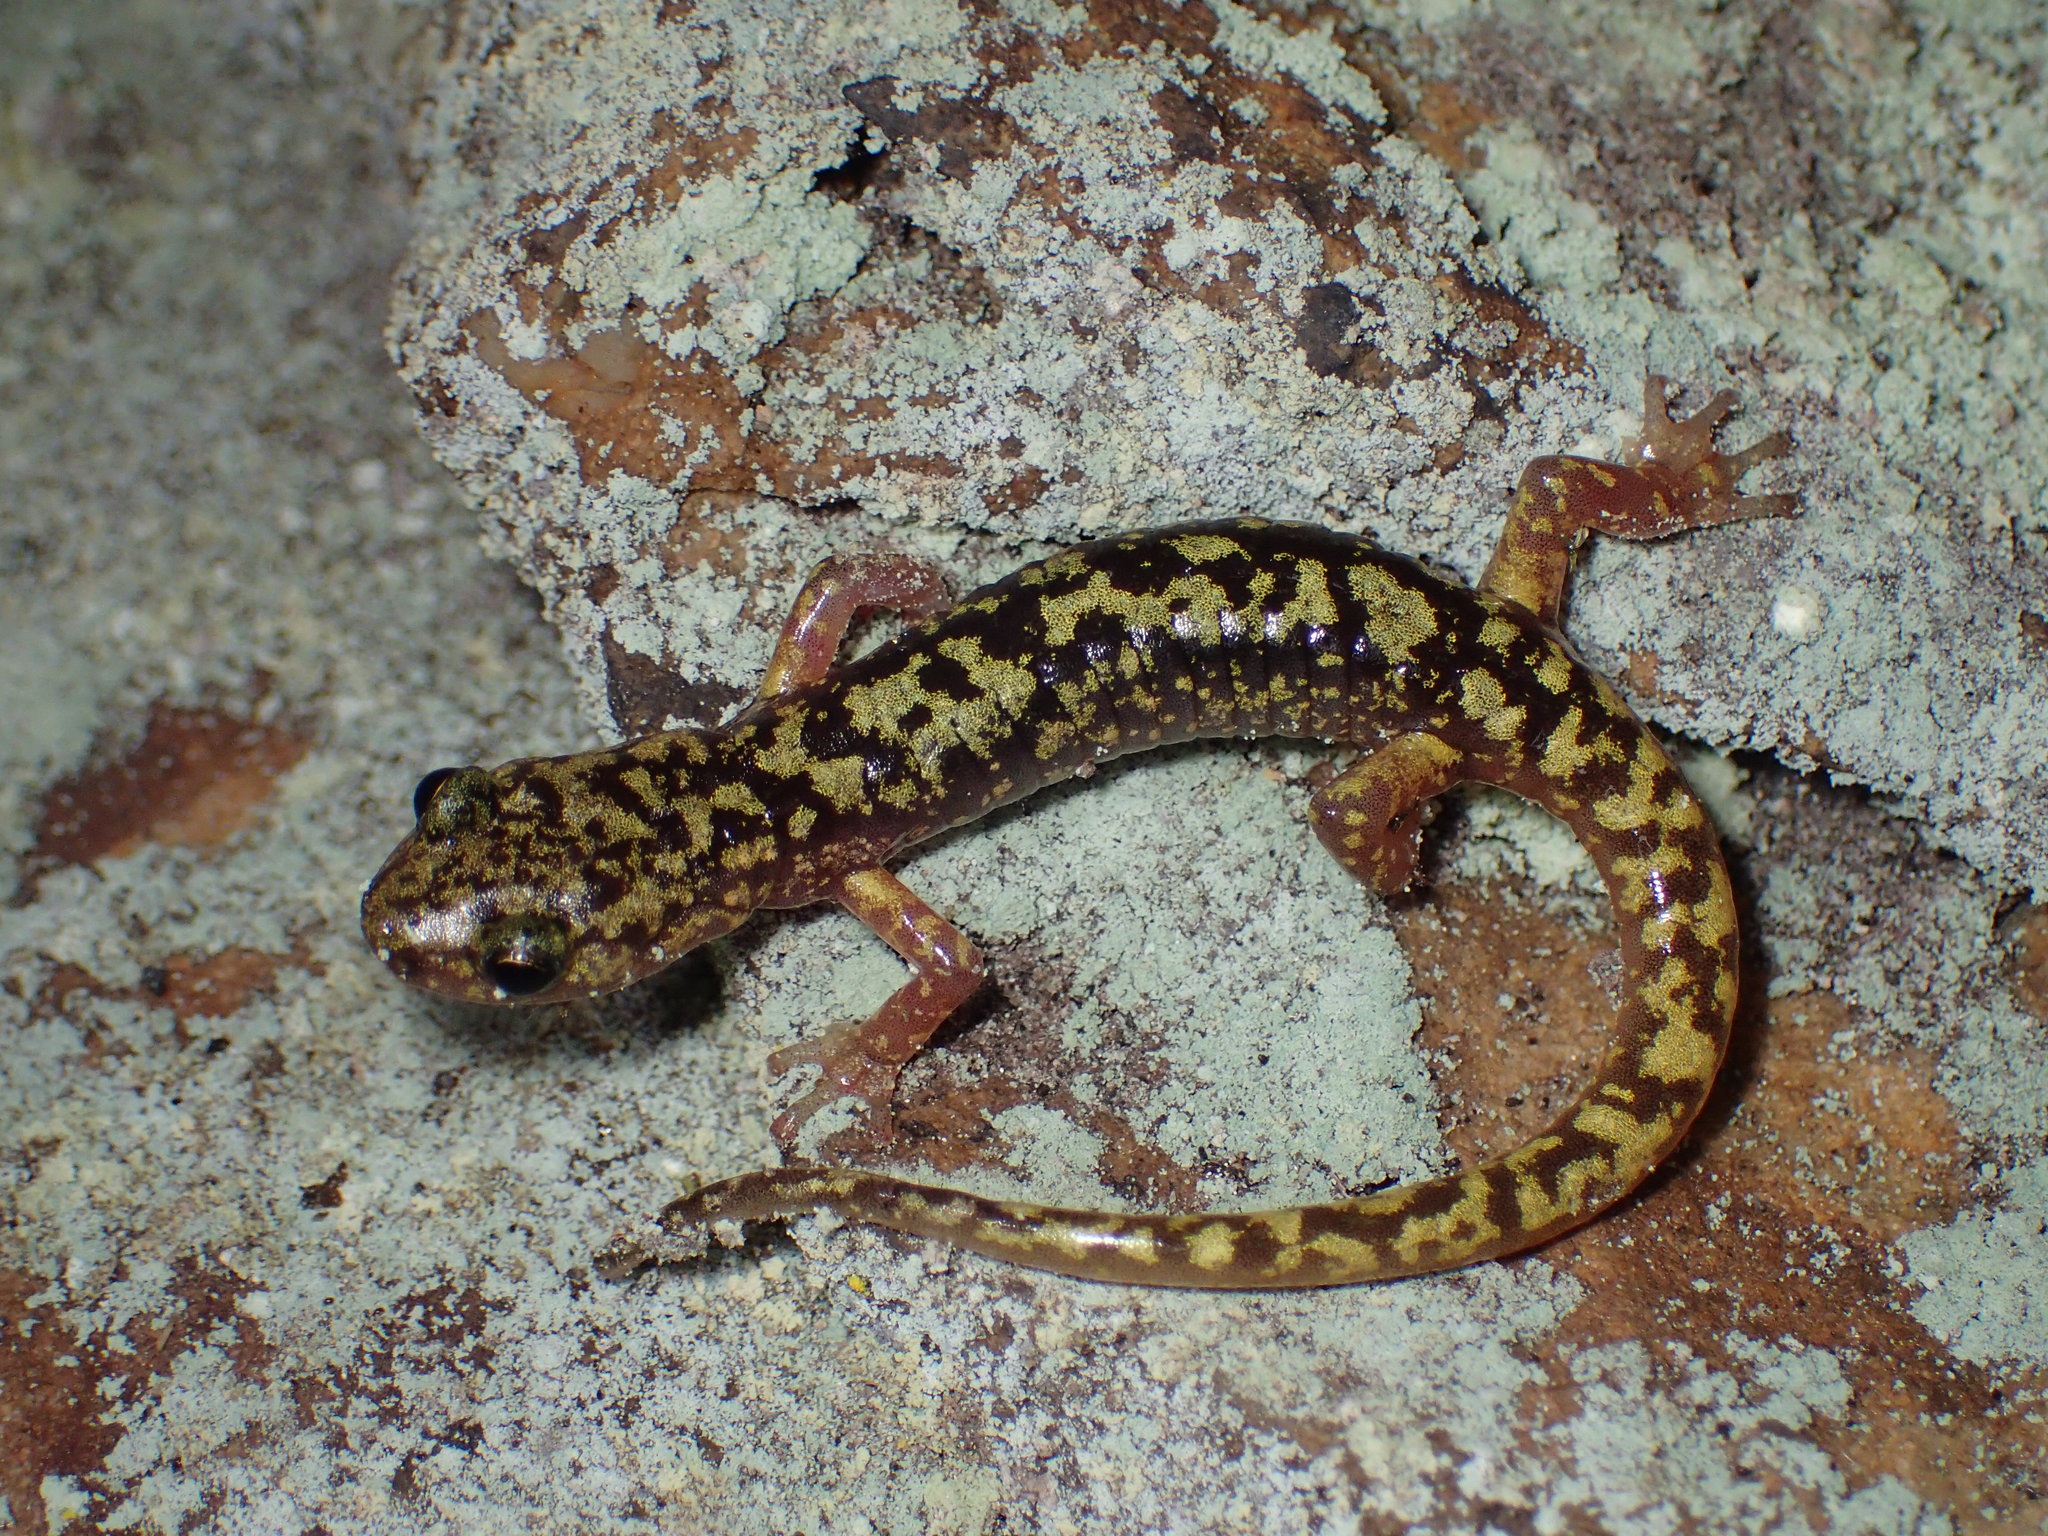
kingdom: Animalia
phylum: Chordata
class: Amphibia
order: Caudata
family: Plethodontidae
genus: Aneides
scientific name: Aneides aeneus
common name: Green salamander
